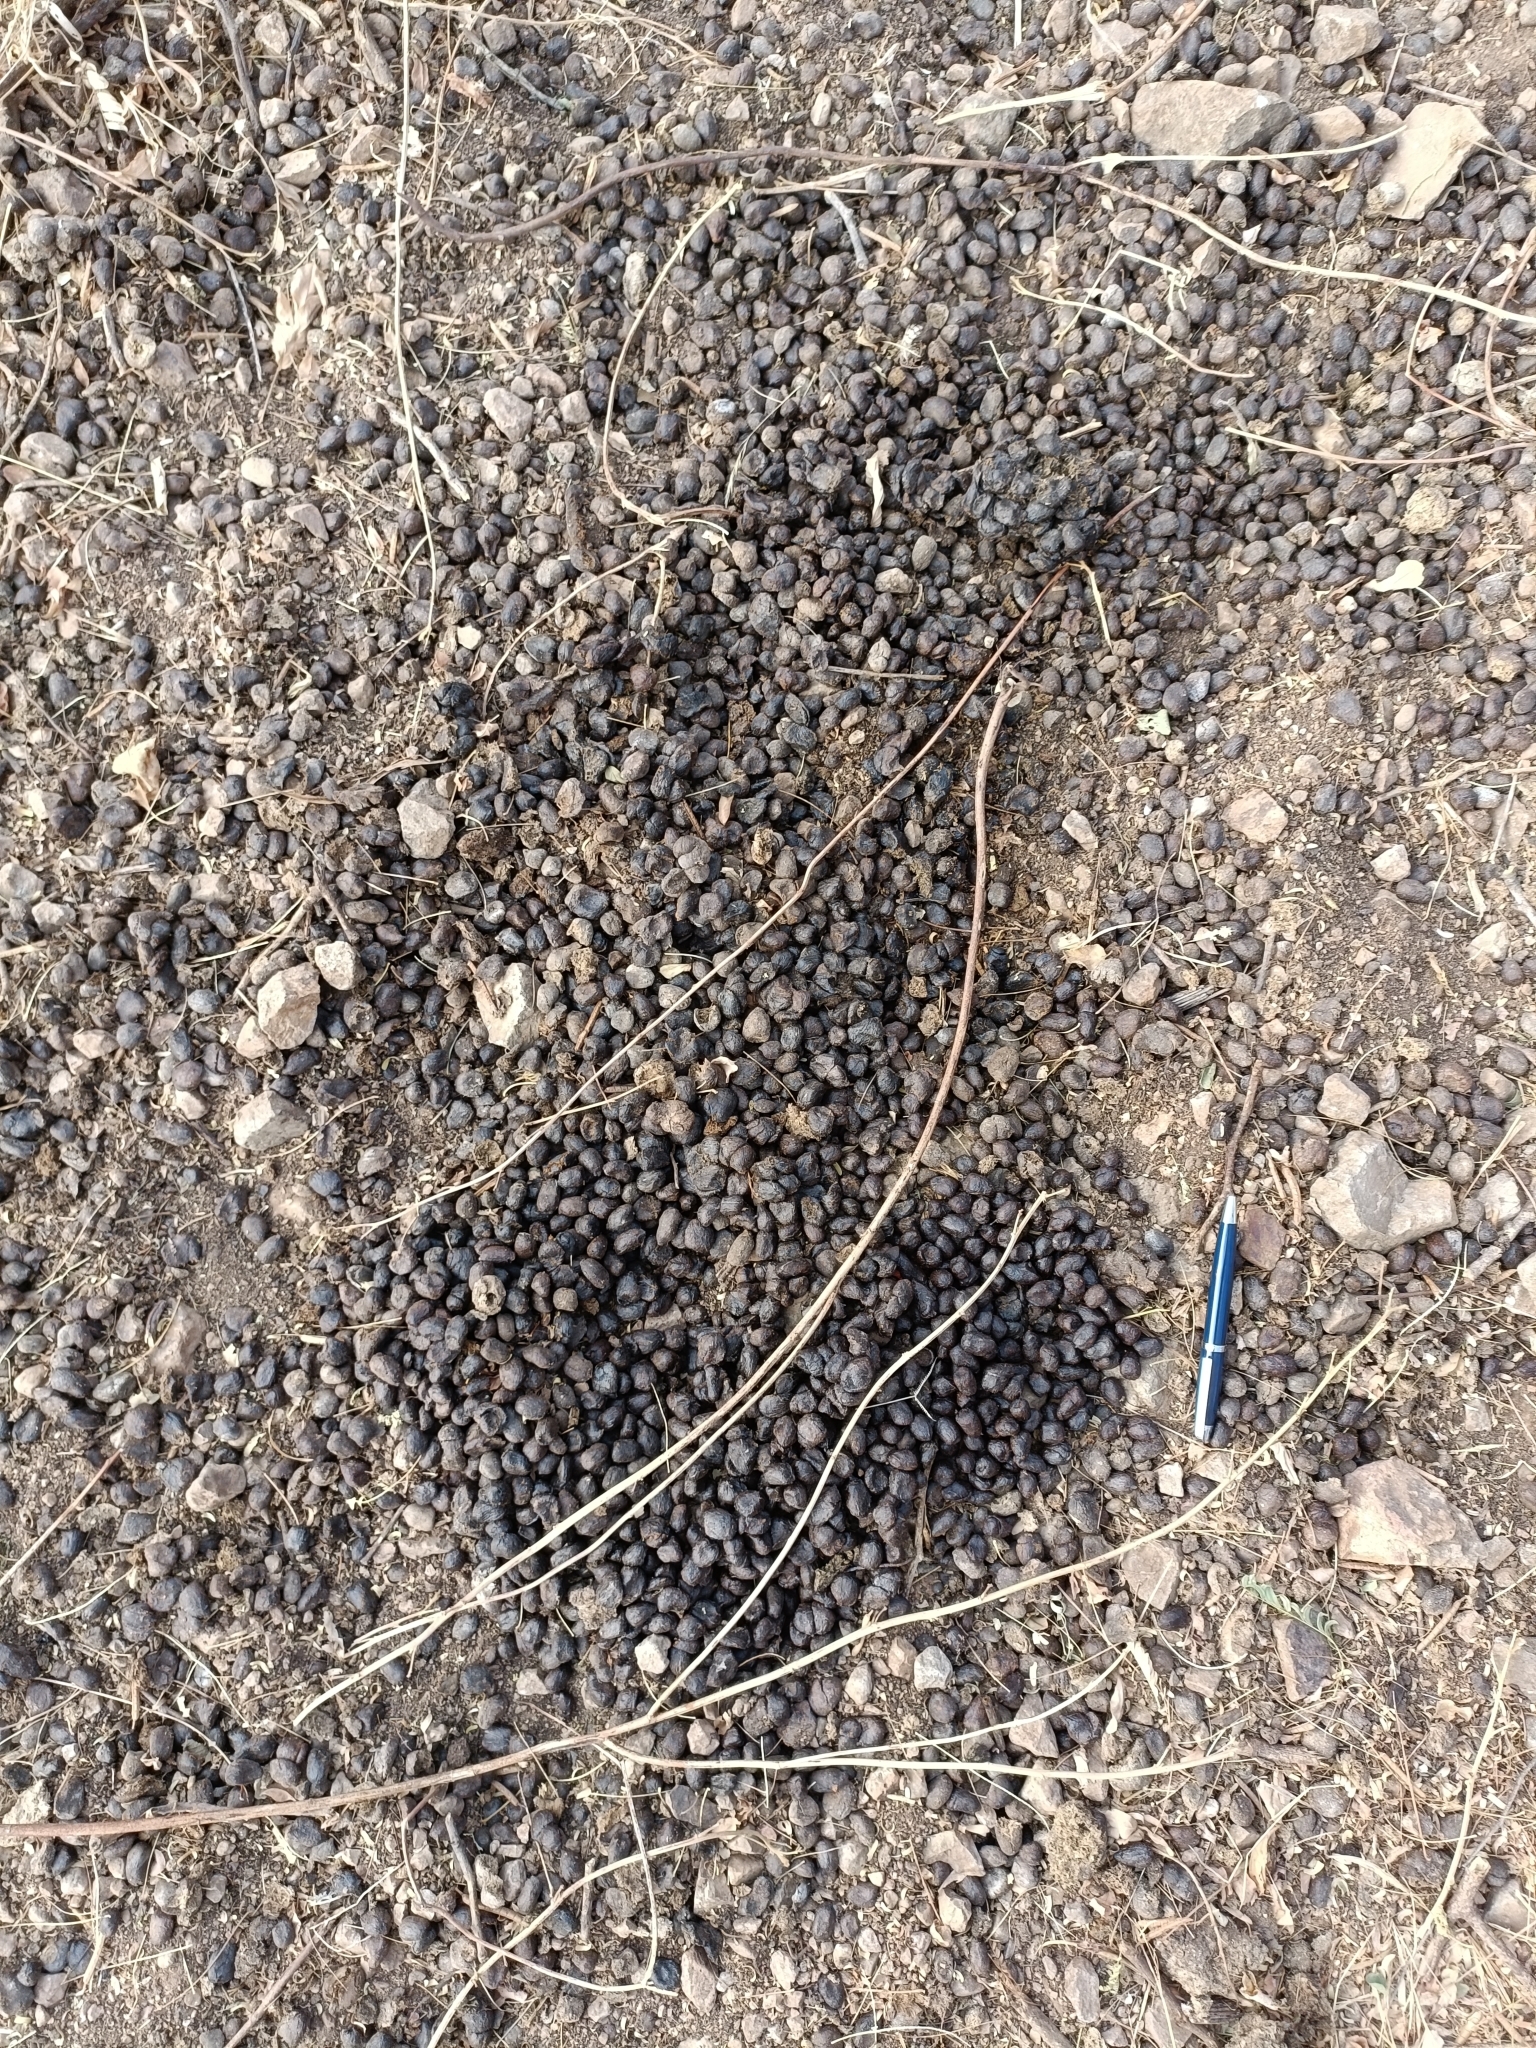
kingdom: Animalia
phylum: Chordata
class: Mammalia
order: Artiodactyla
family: Bovidae
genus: Boselaphus
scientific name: Boselaphus tragocamelus
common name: Nilgai
